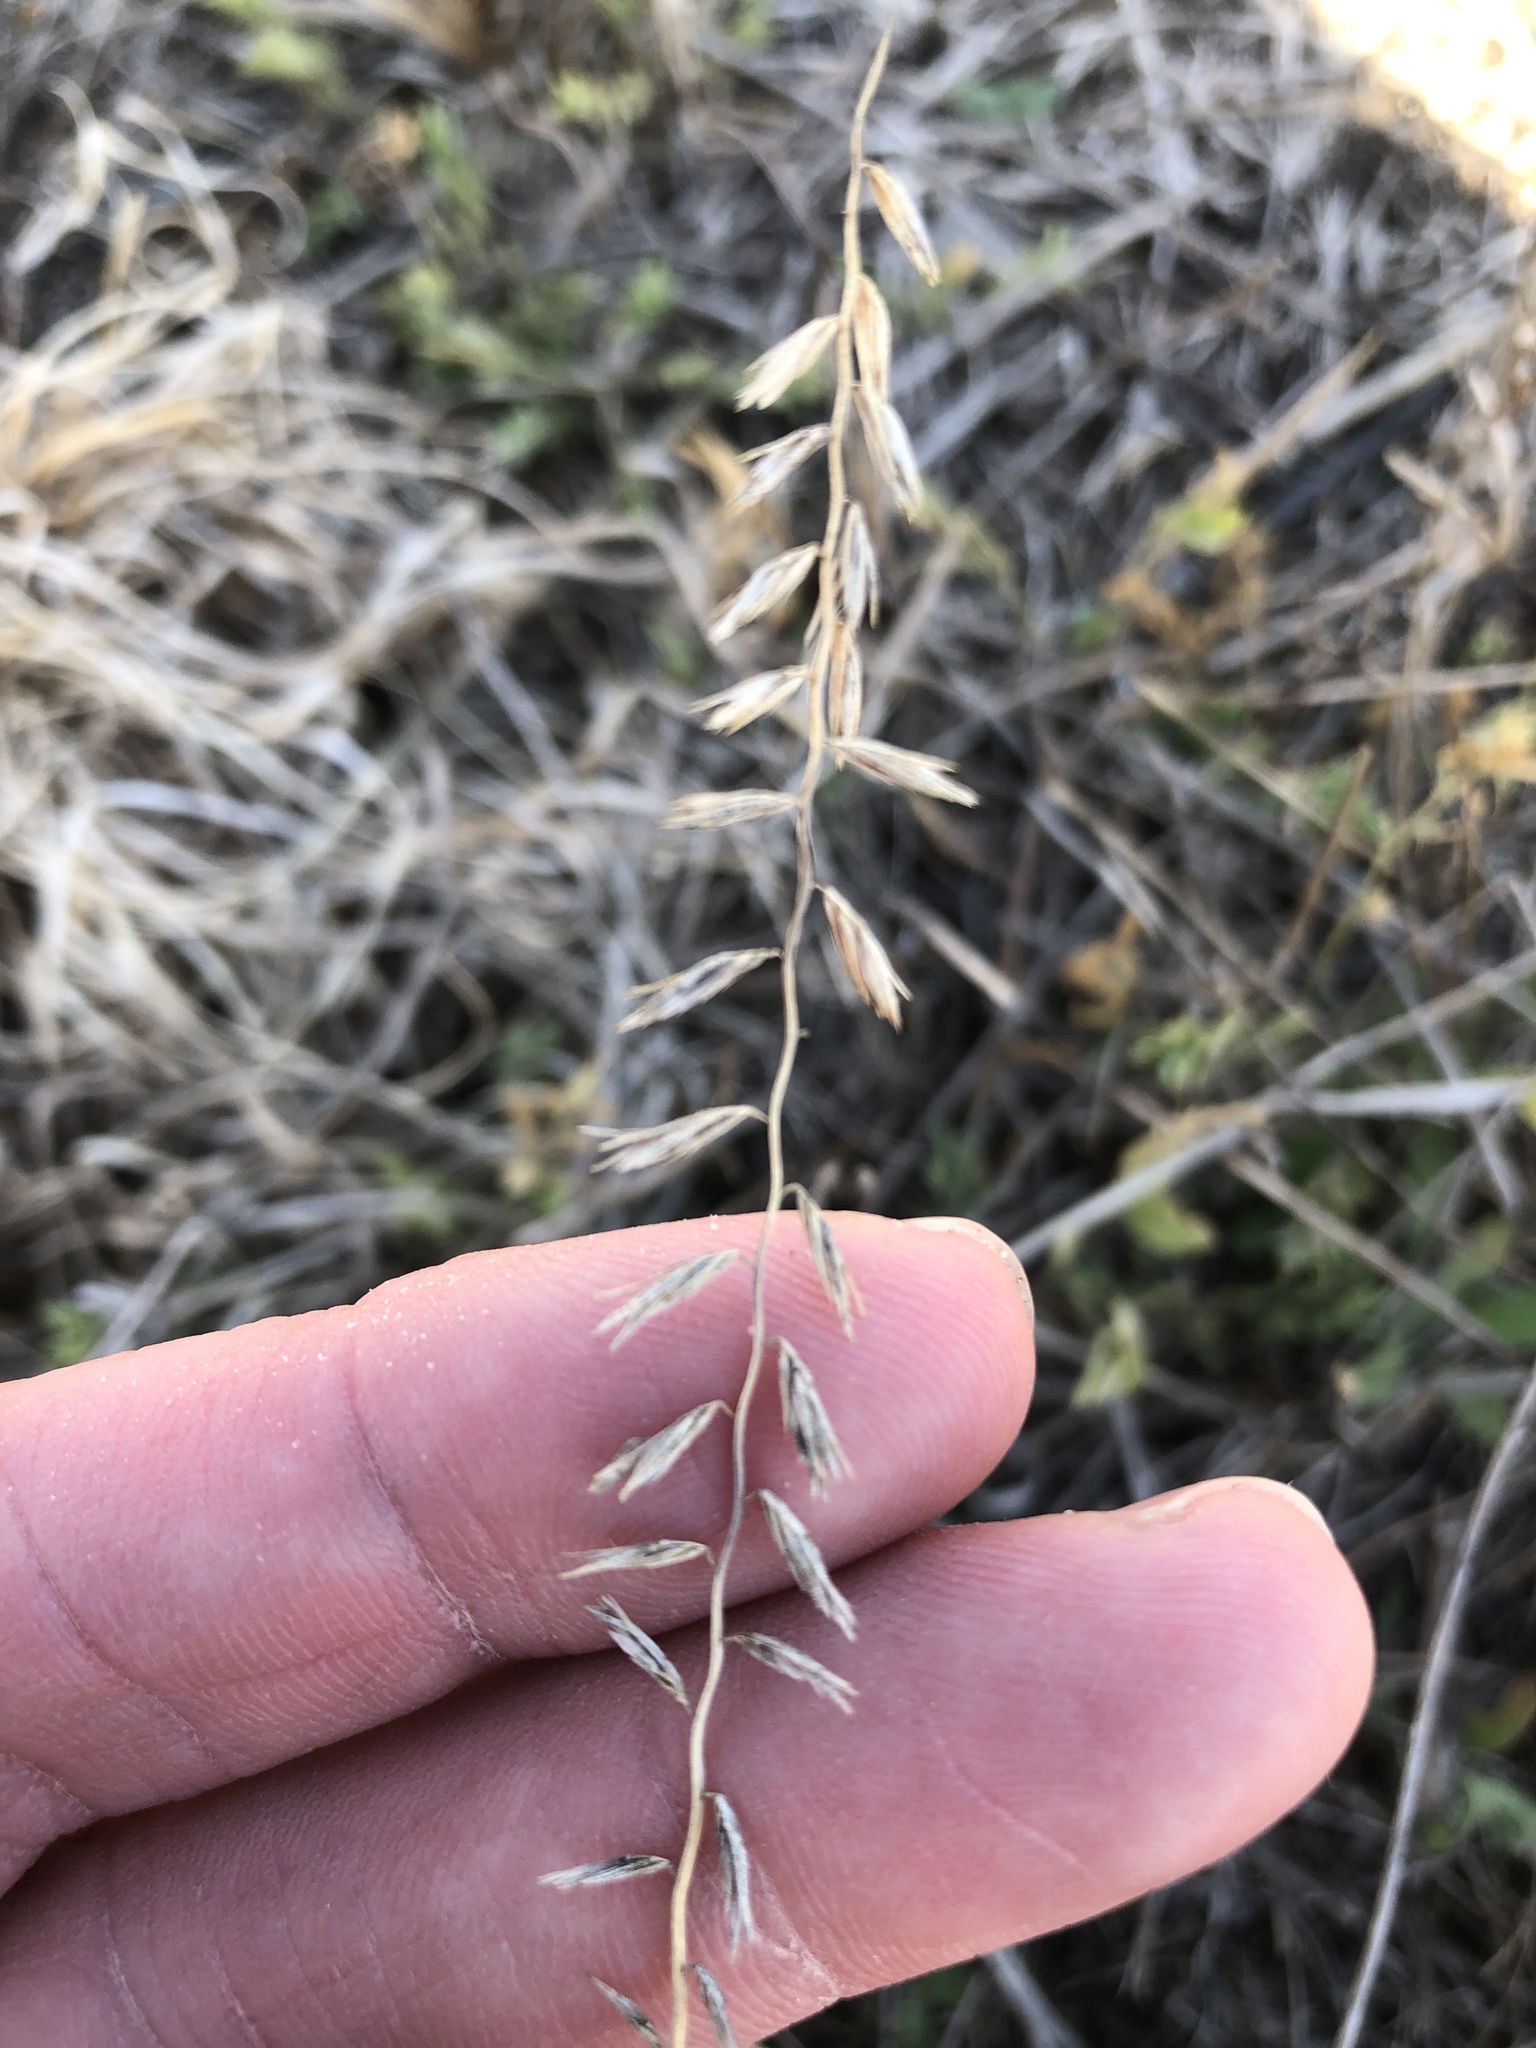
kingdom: Plantae
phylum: Tracheophyta
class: Liliopsida
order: Poales
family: Poaceae
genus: Bouteloua
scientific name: Bouteloua curtipendula
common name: Side-oats grama
